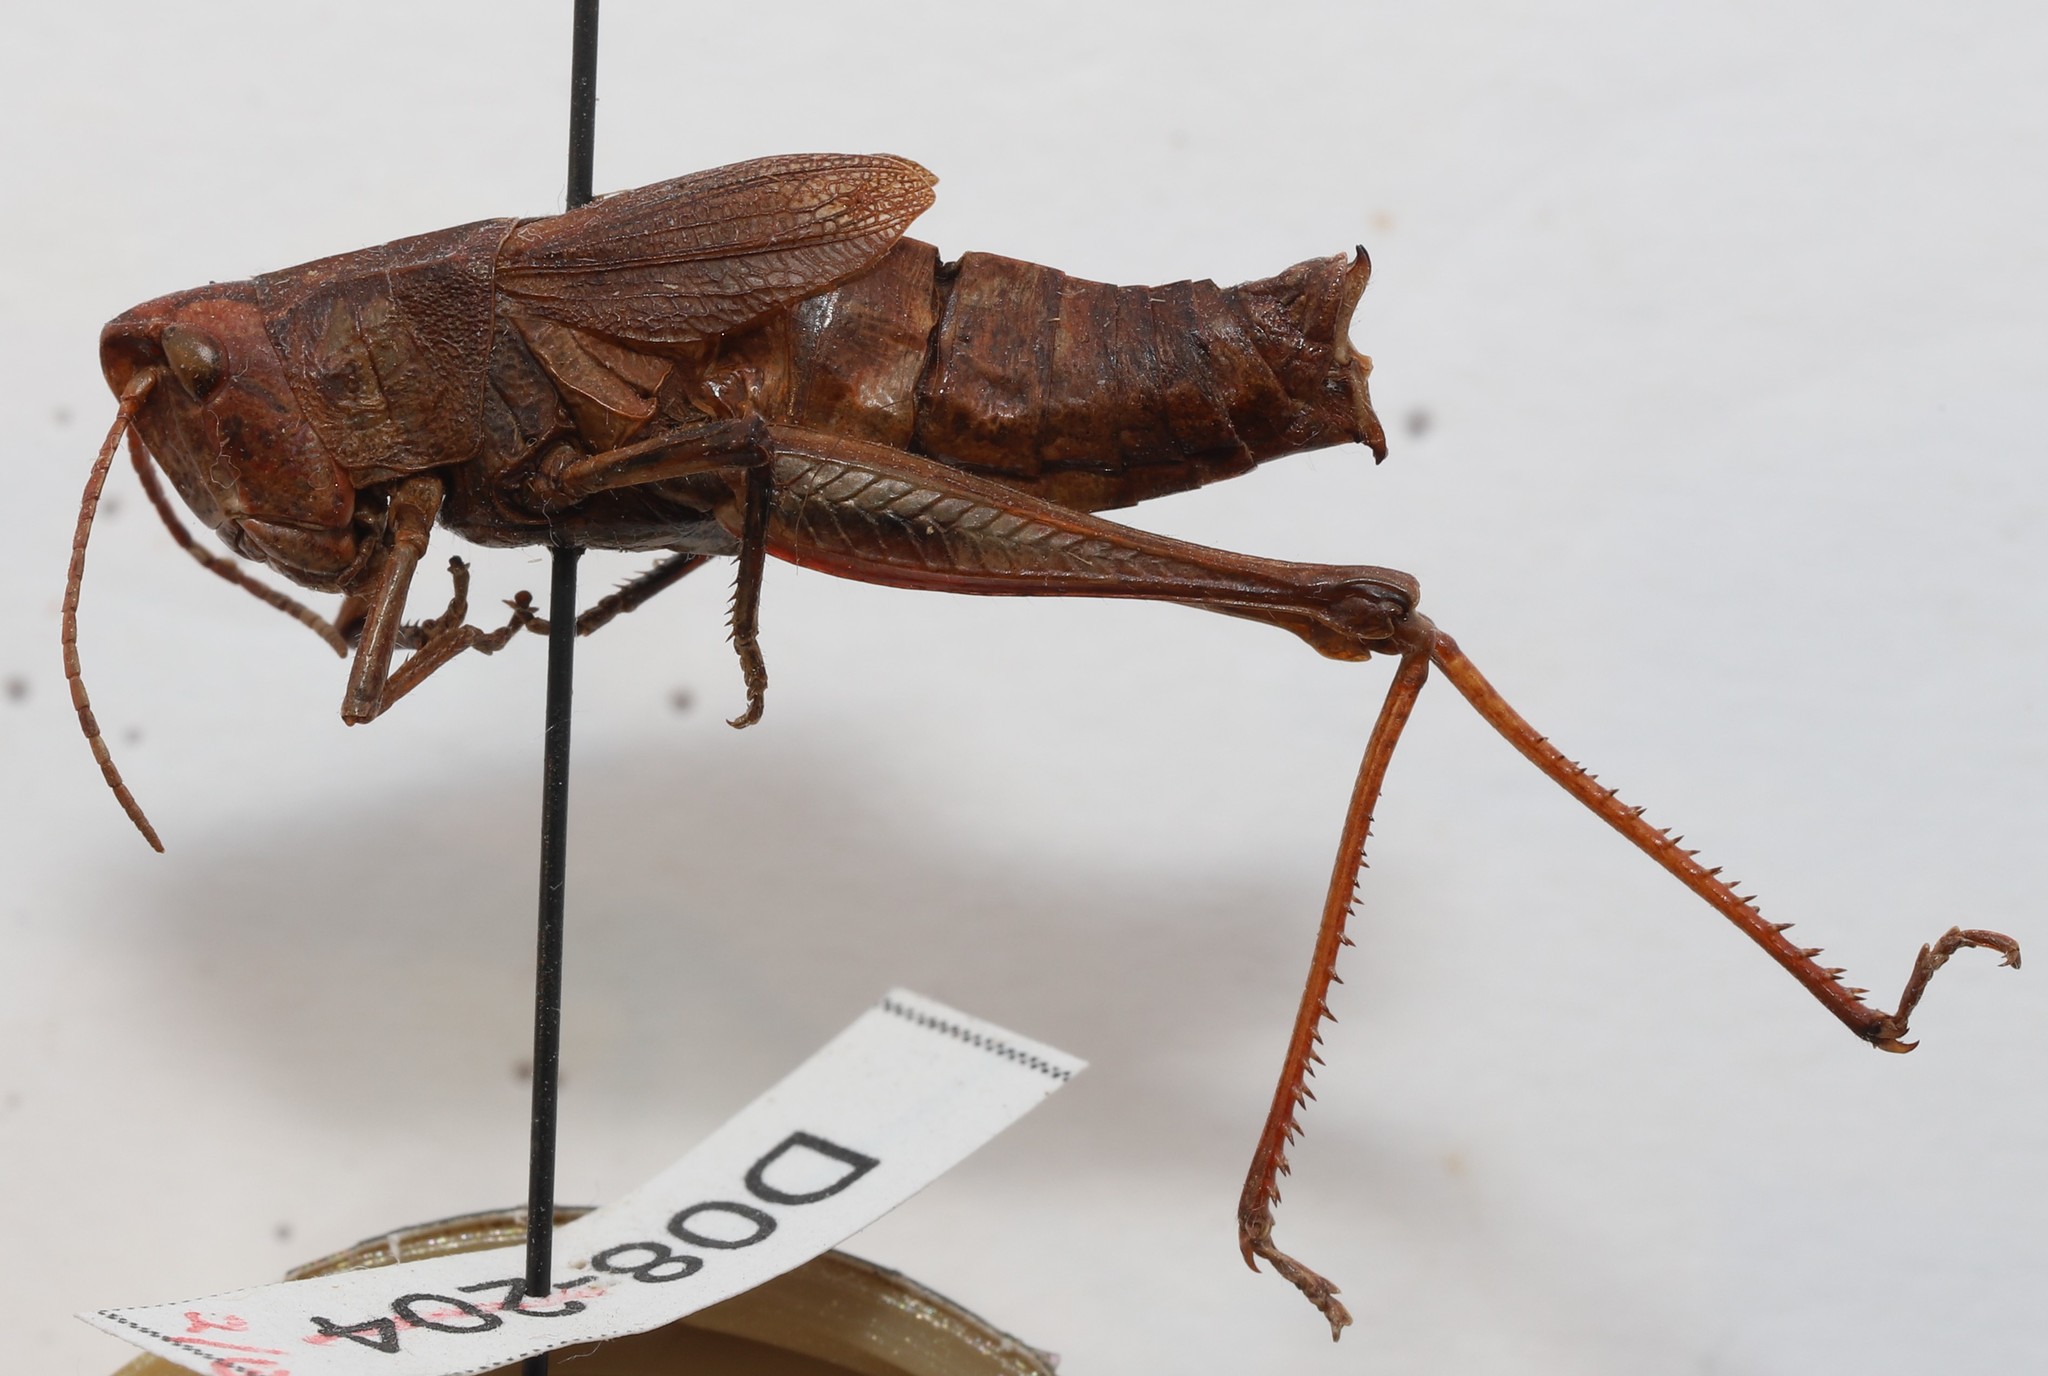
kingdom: Animalia
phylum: Arthropoda
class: Insecta
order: Orthoptera
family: Acrididae
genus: Chloealtis
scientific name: Chloealtis abdominalis
